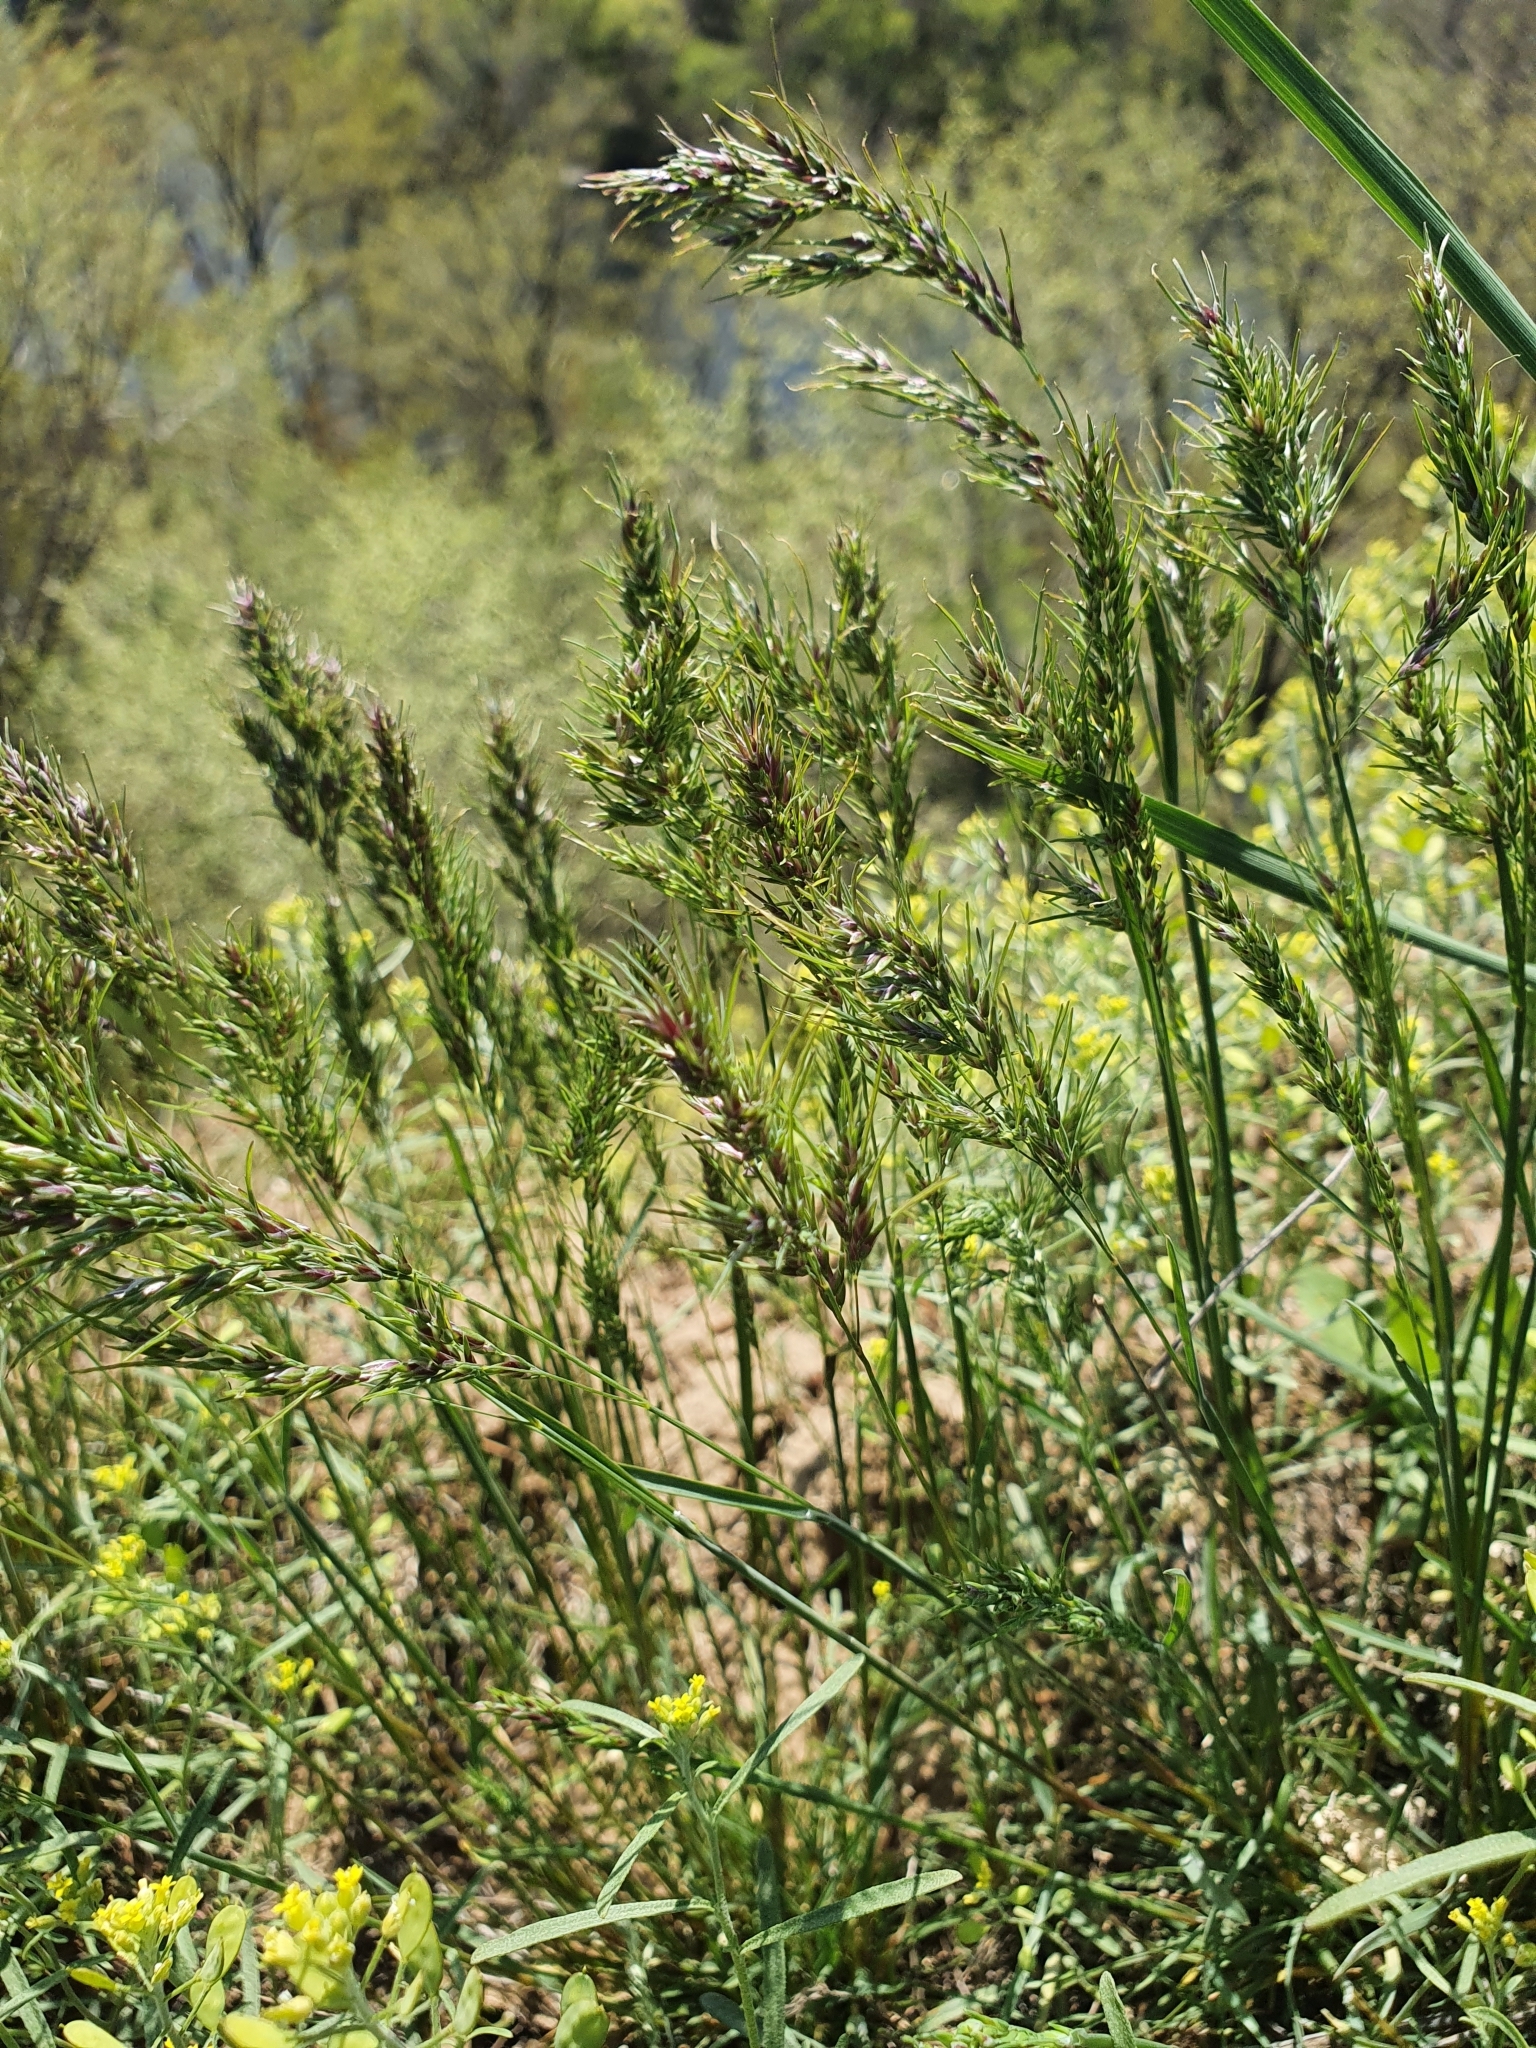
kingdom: Plantae
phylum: Tracheophyta
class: Liliopsida
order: Poales
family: Poaceae
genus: Poa
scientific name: Poa bulbosa
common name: Bulbous bluegrass
